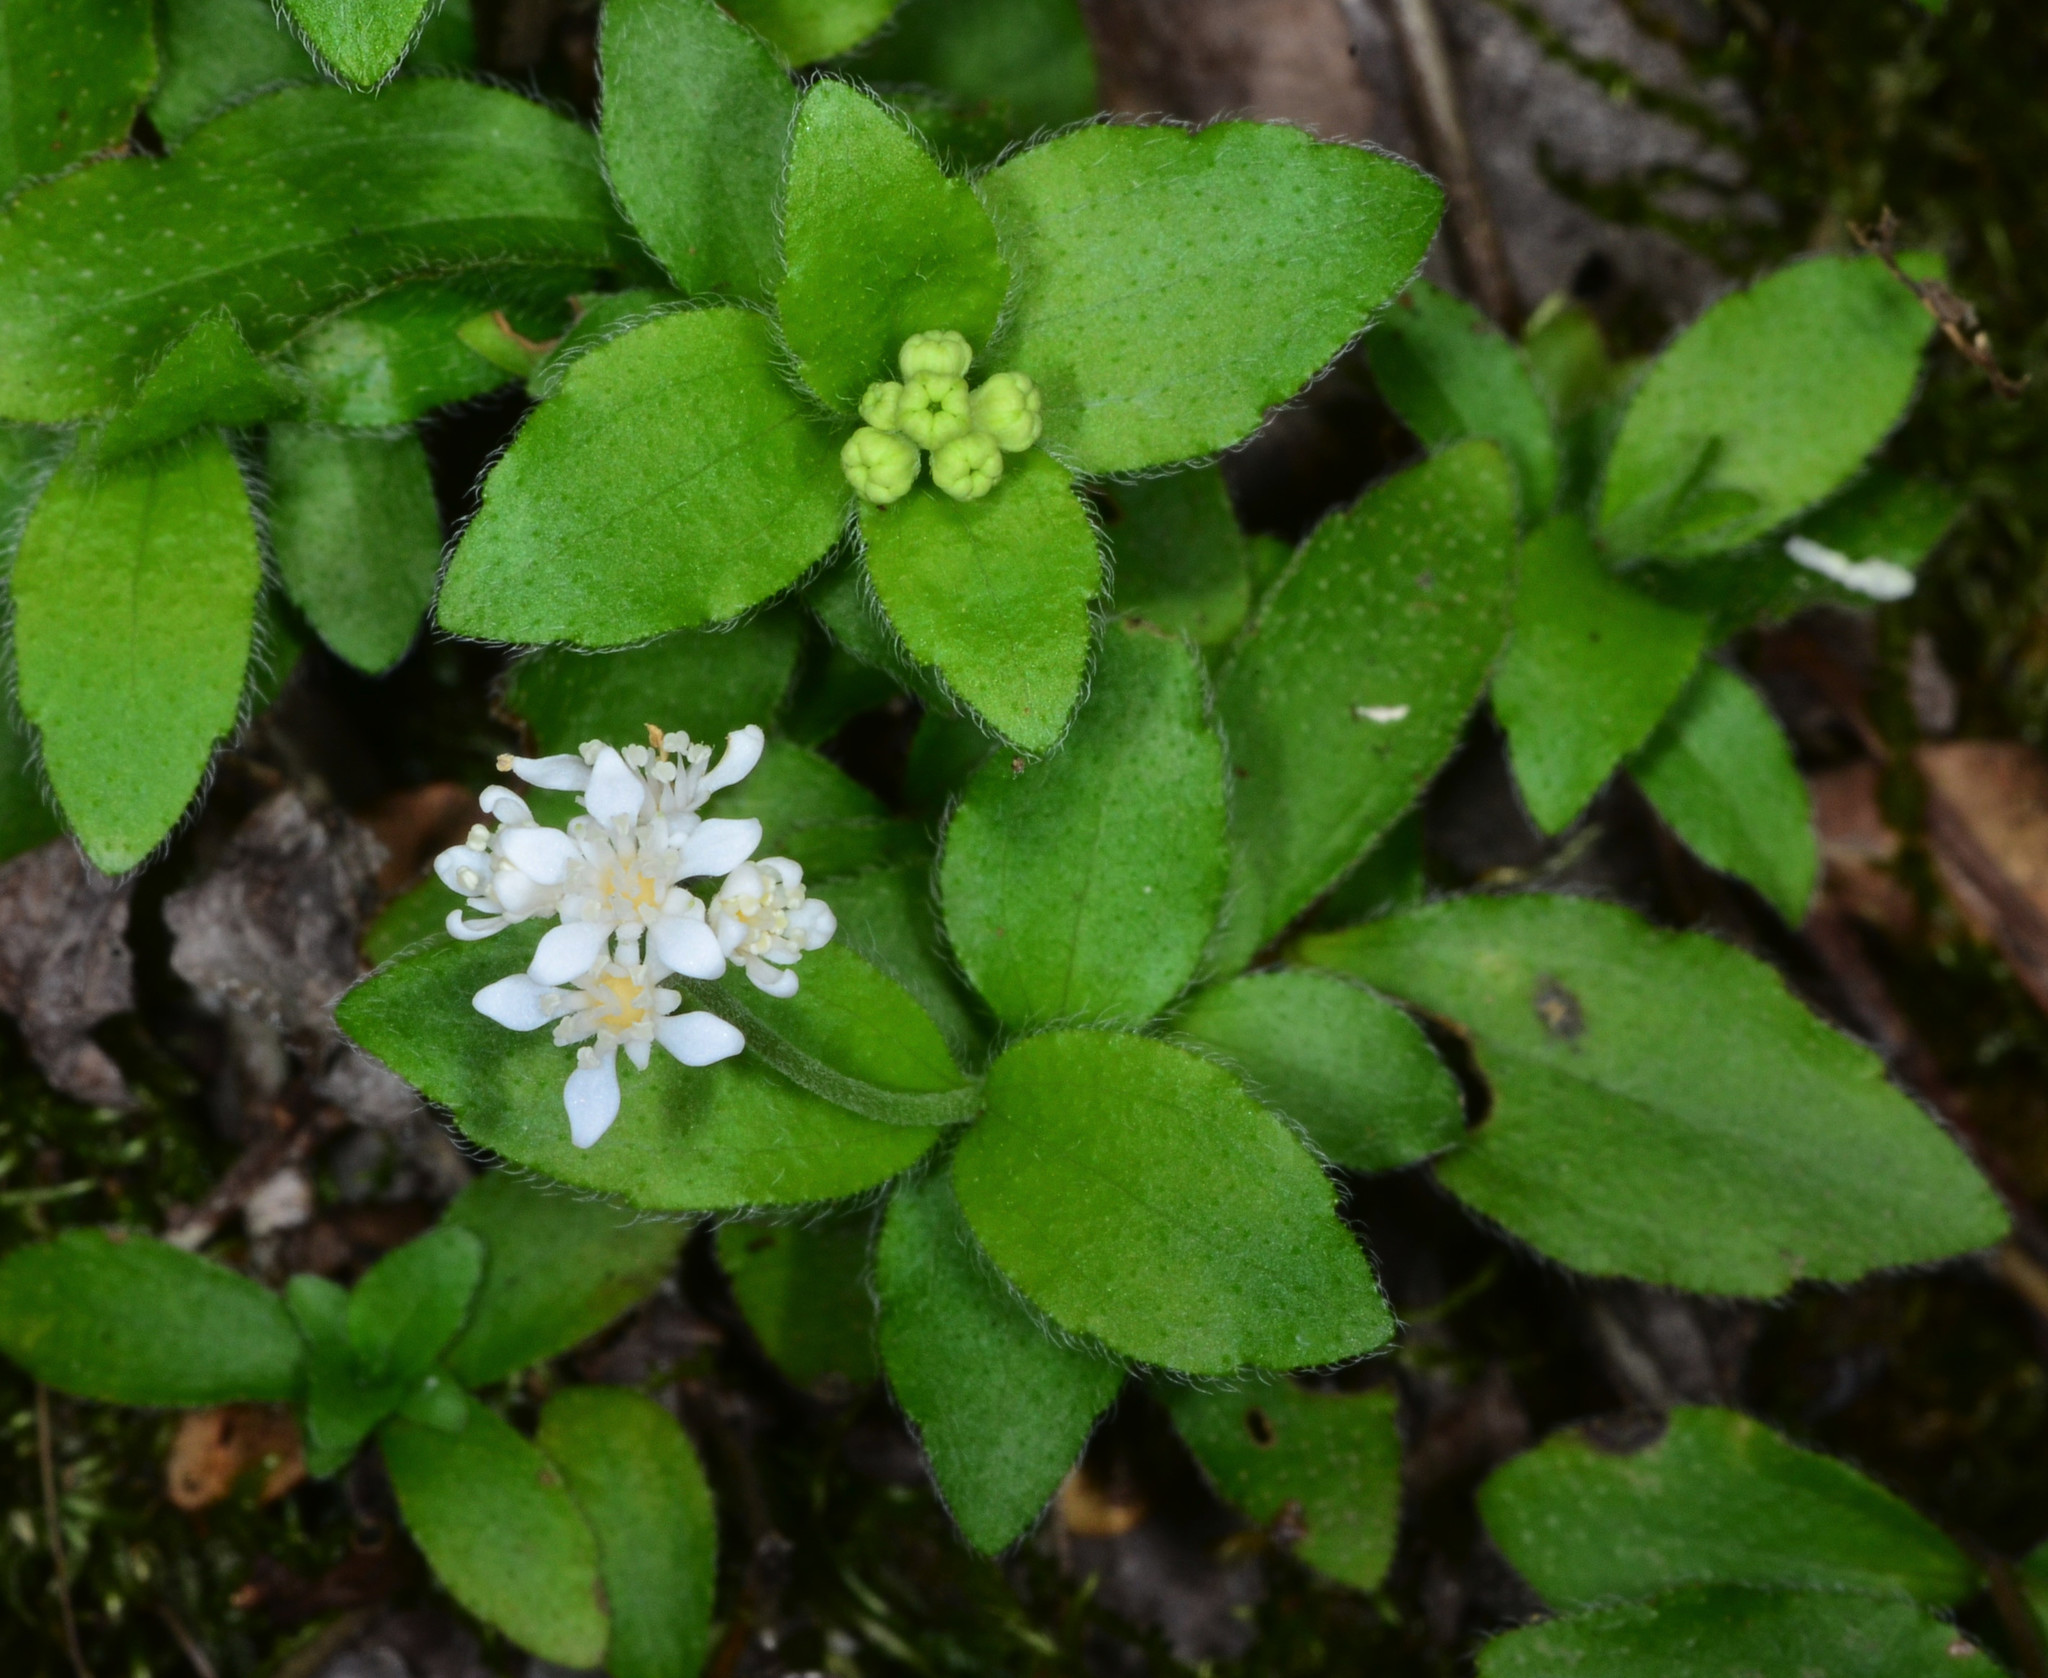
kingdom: Plantae
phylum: Tracheophyta
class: Magnoliopsida
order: Cornales
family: Hydrangeaceae
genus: Whipplea
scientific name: Whipplea modesta
